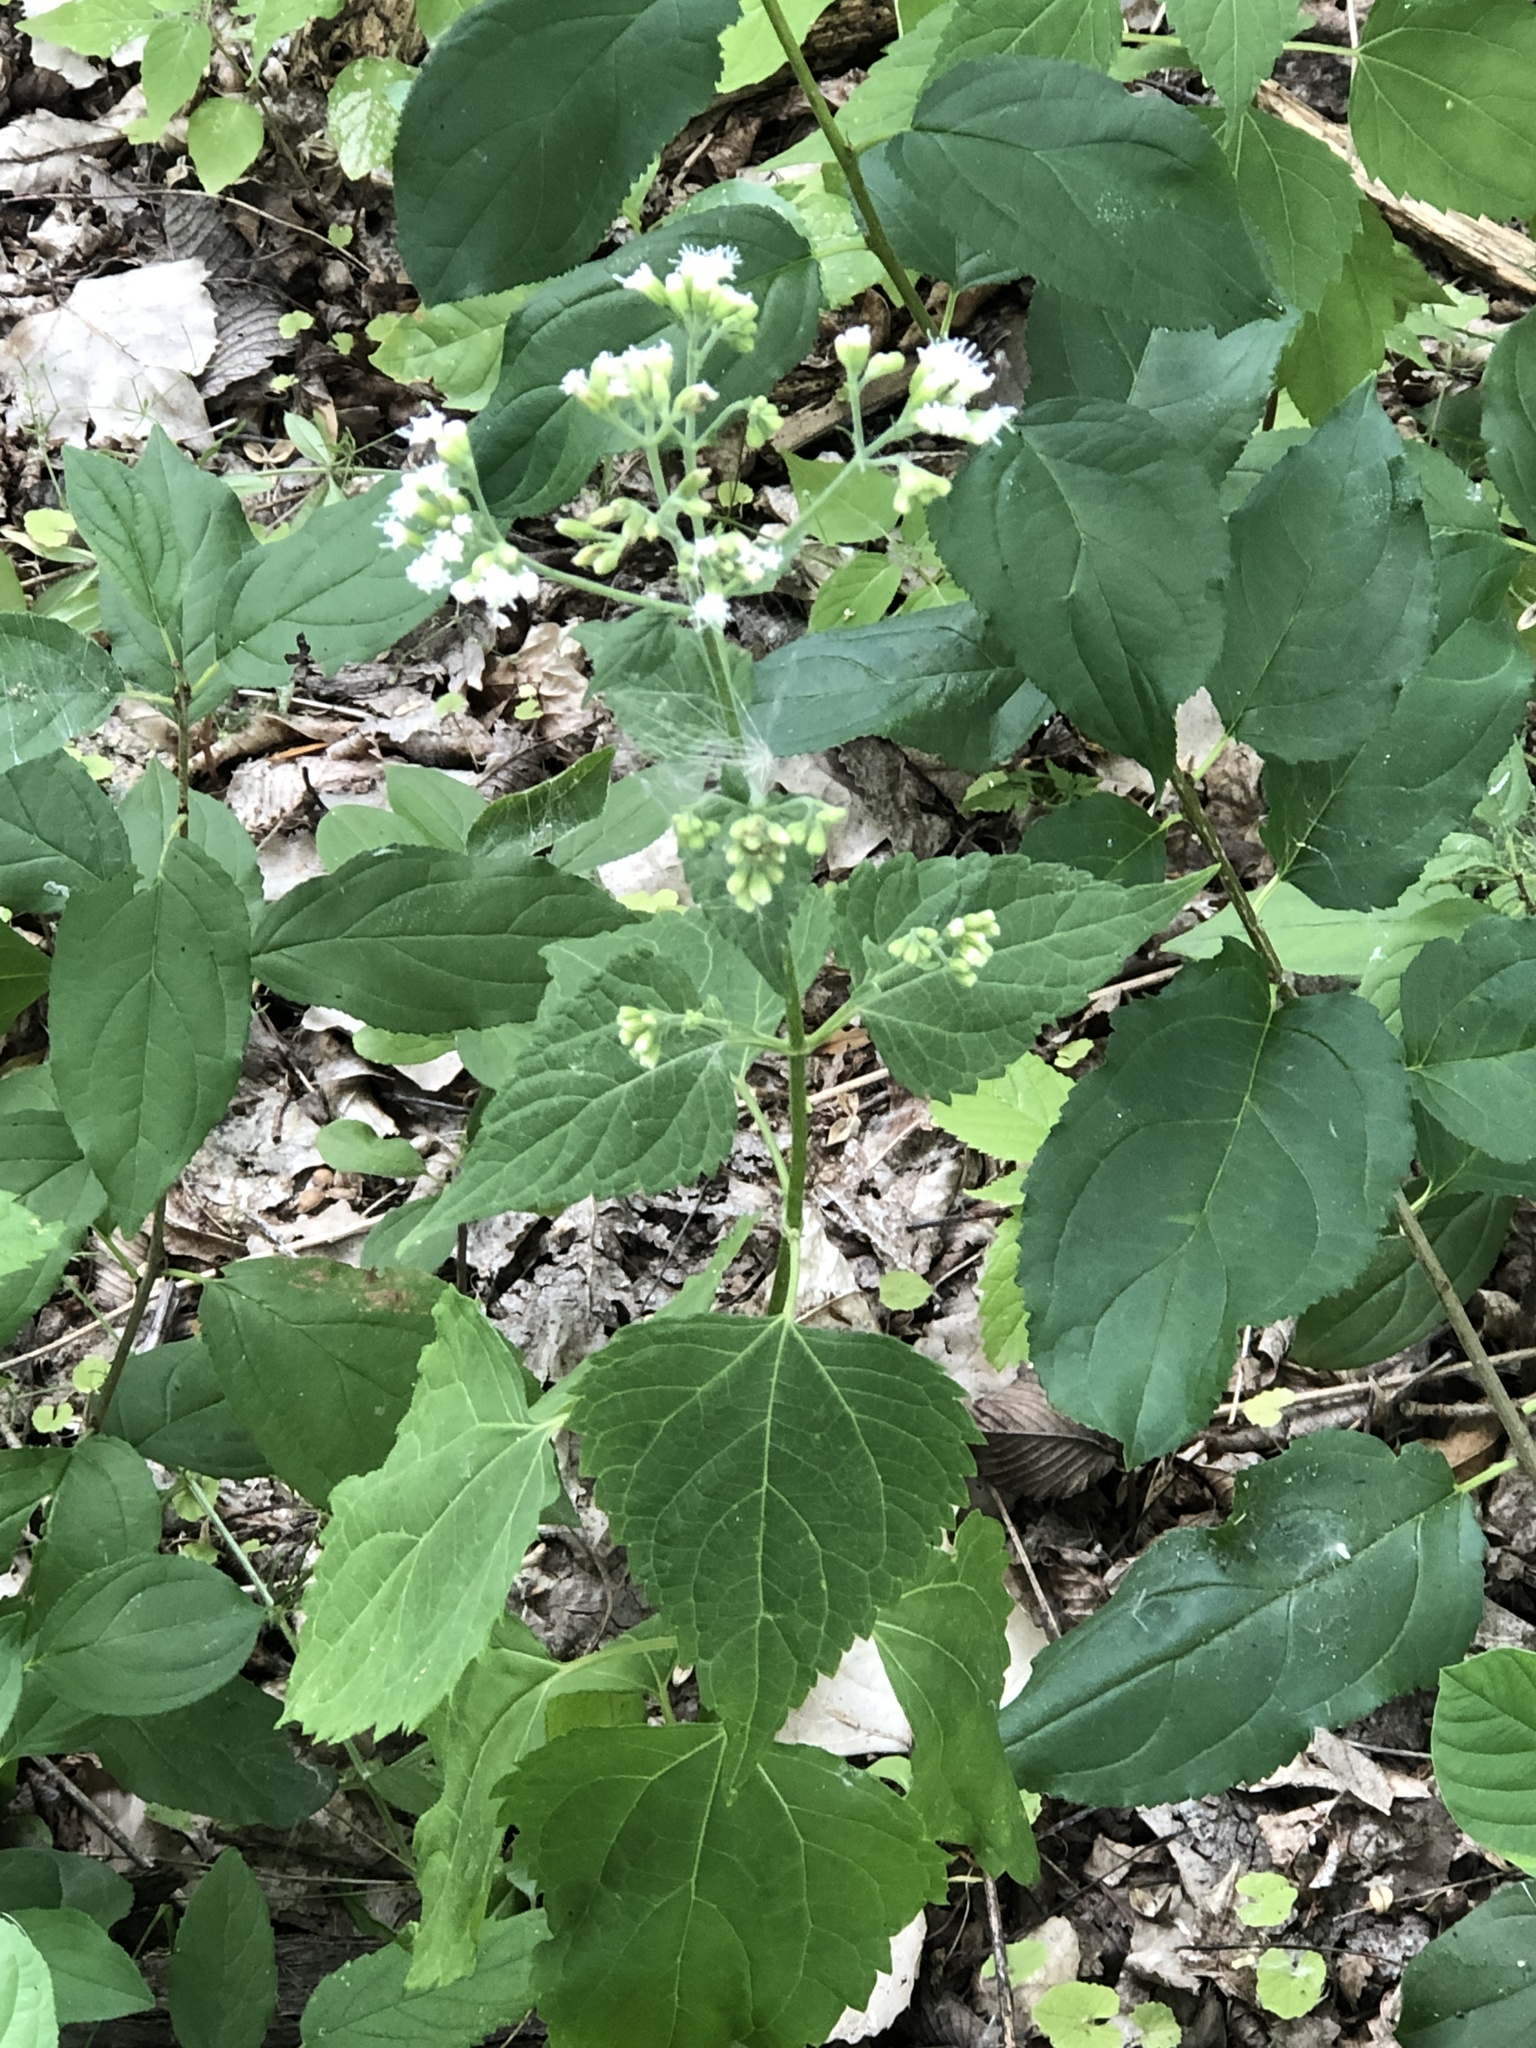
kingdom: Plantae
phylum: Tracheophyta
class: Magnoliopsida
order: Asterales
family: Asteraceae
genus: Ageratina
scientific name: Ageratina altissima
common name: White snakeroot
